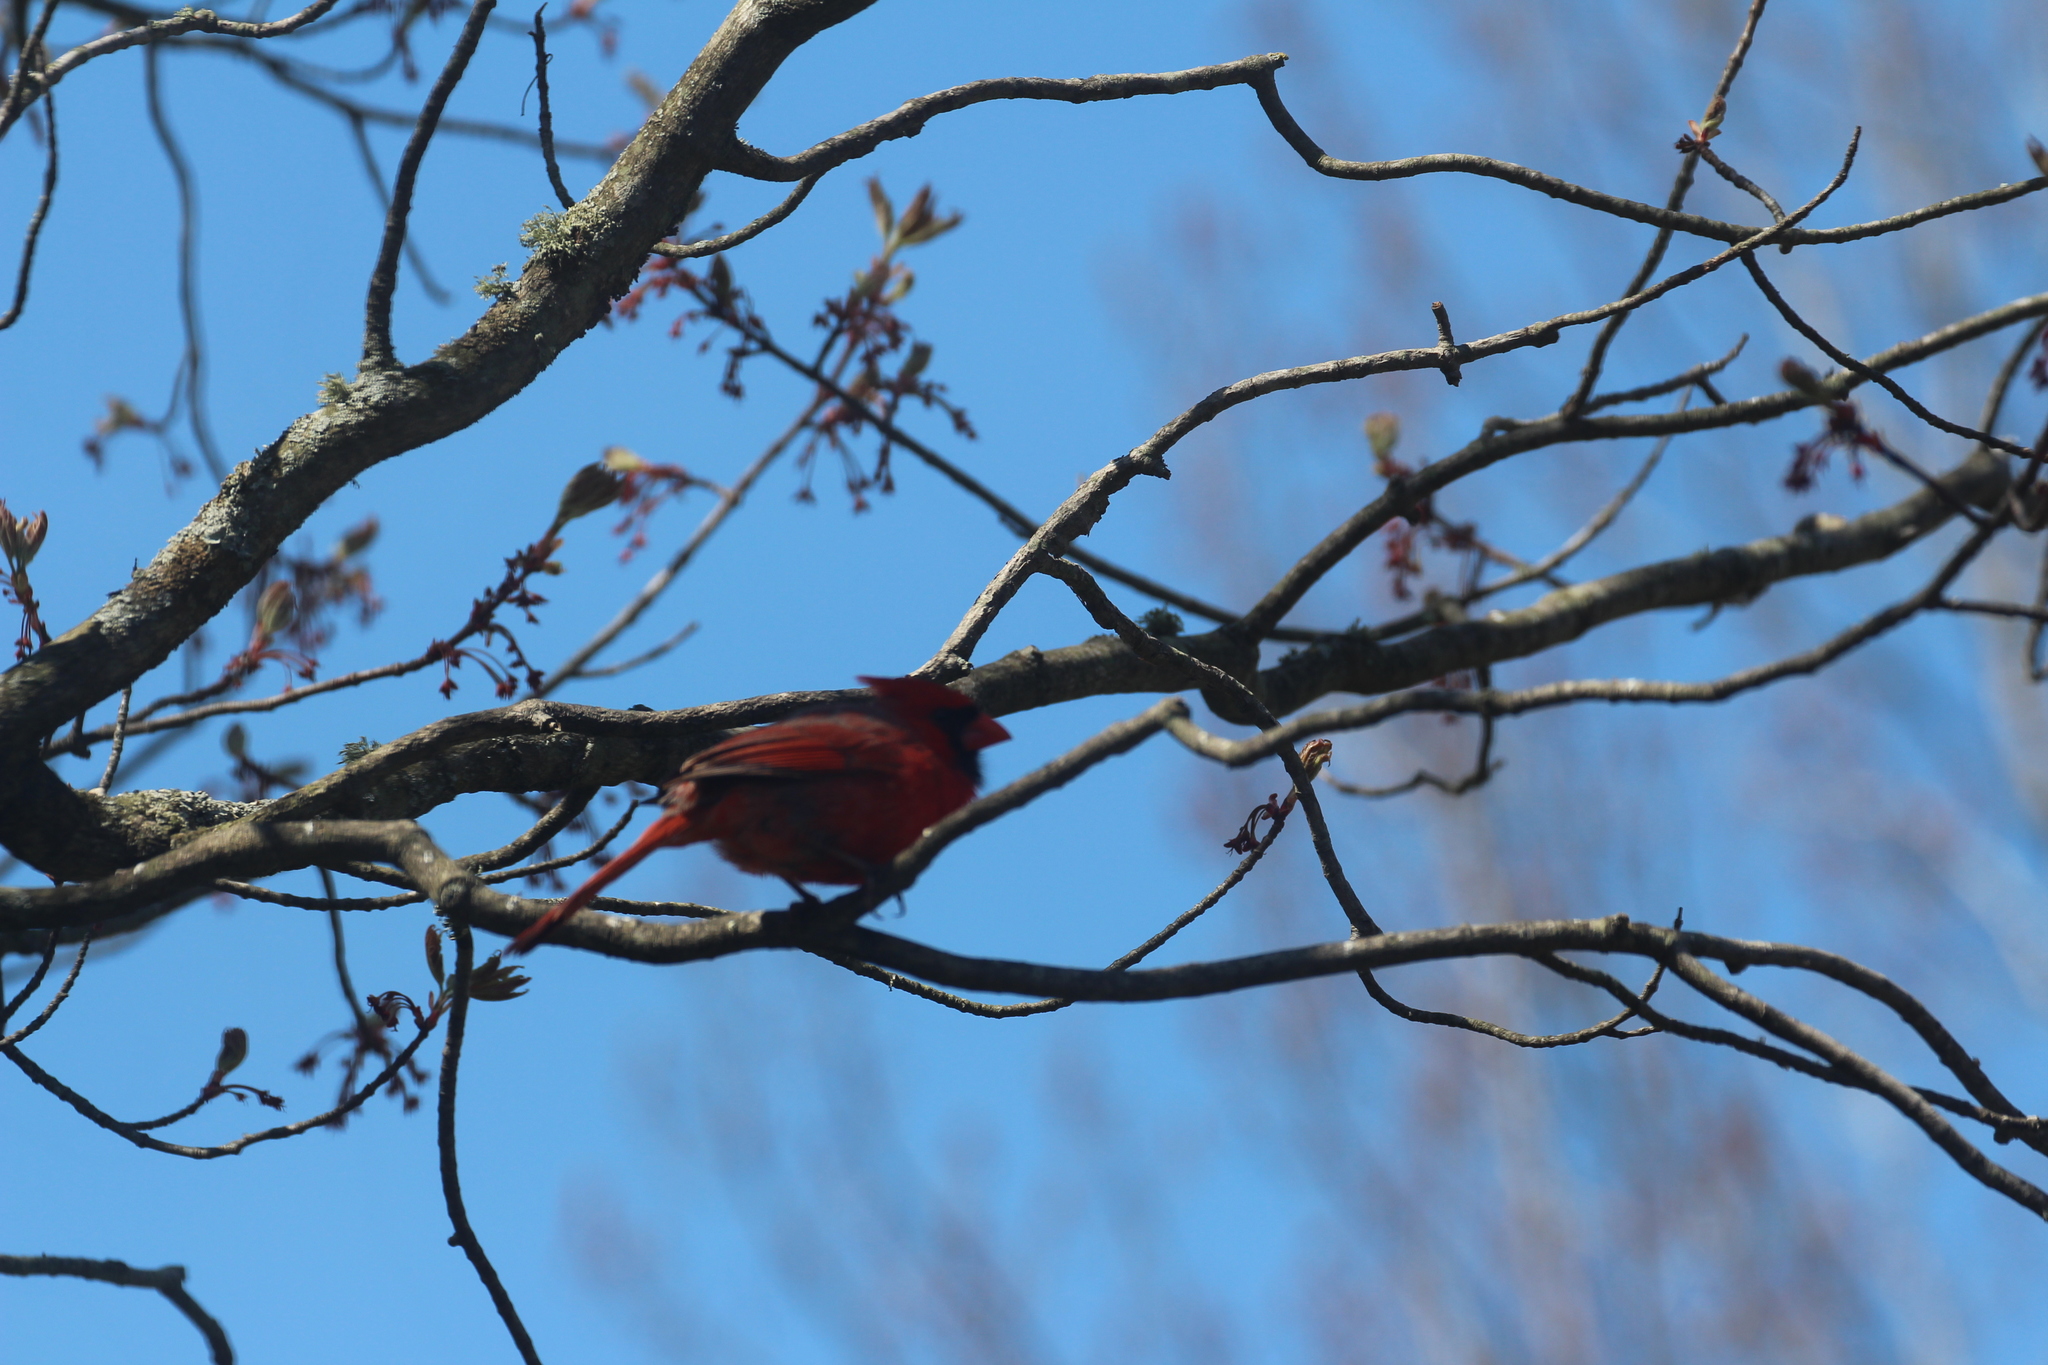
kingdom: Animalia
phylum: Chordata
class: Aves
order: Passeriformes
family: Cardinalidae
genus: Cardinalis
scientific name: Cardinalis cardinalis
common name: Northern cardinal
